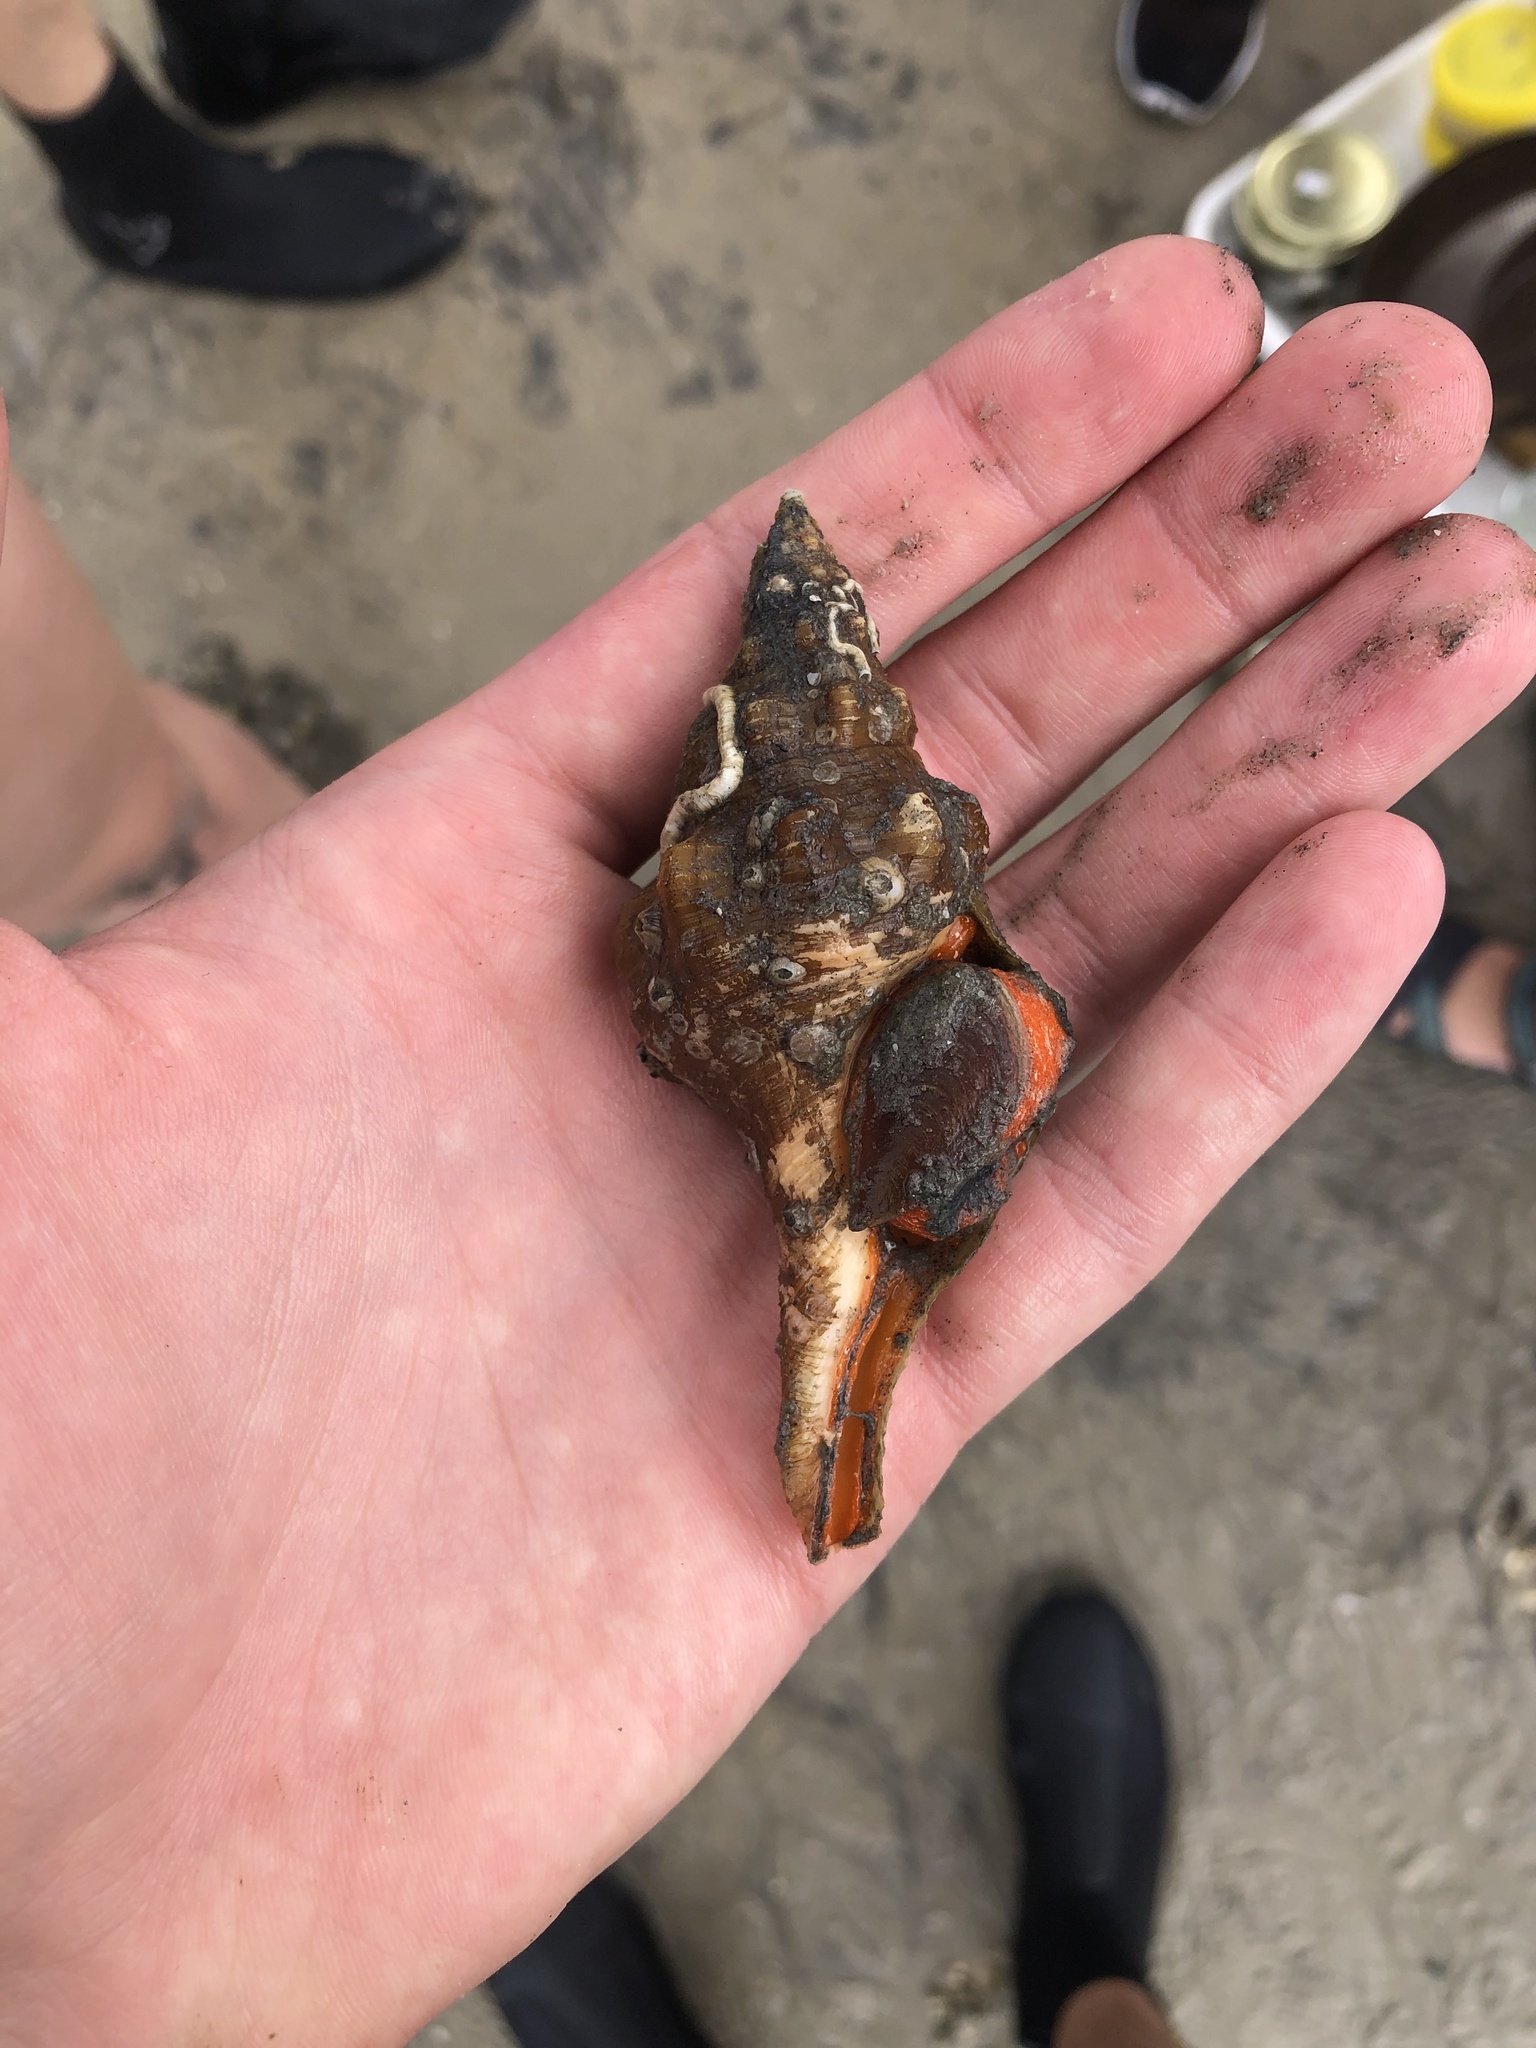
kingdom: Animalia
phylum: Mollusca
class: Gastropoda
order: Neogastropoda
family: Fasciolariidae
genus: Triplofusus
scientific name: Triplofusus giganteus
